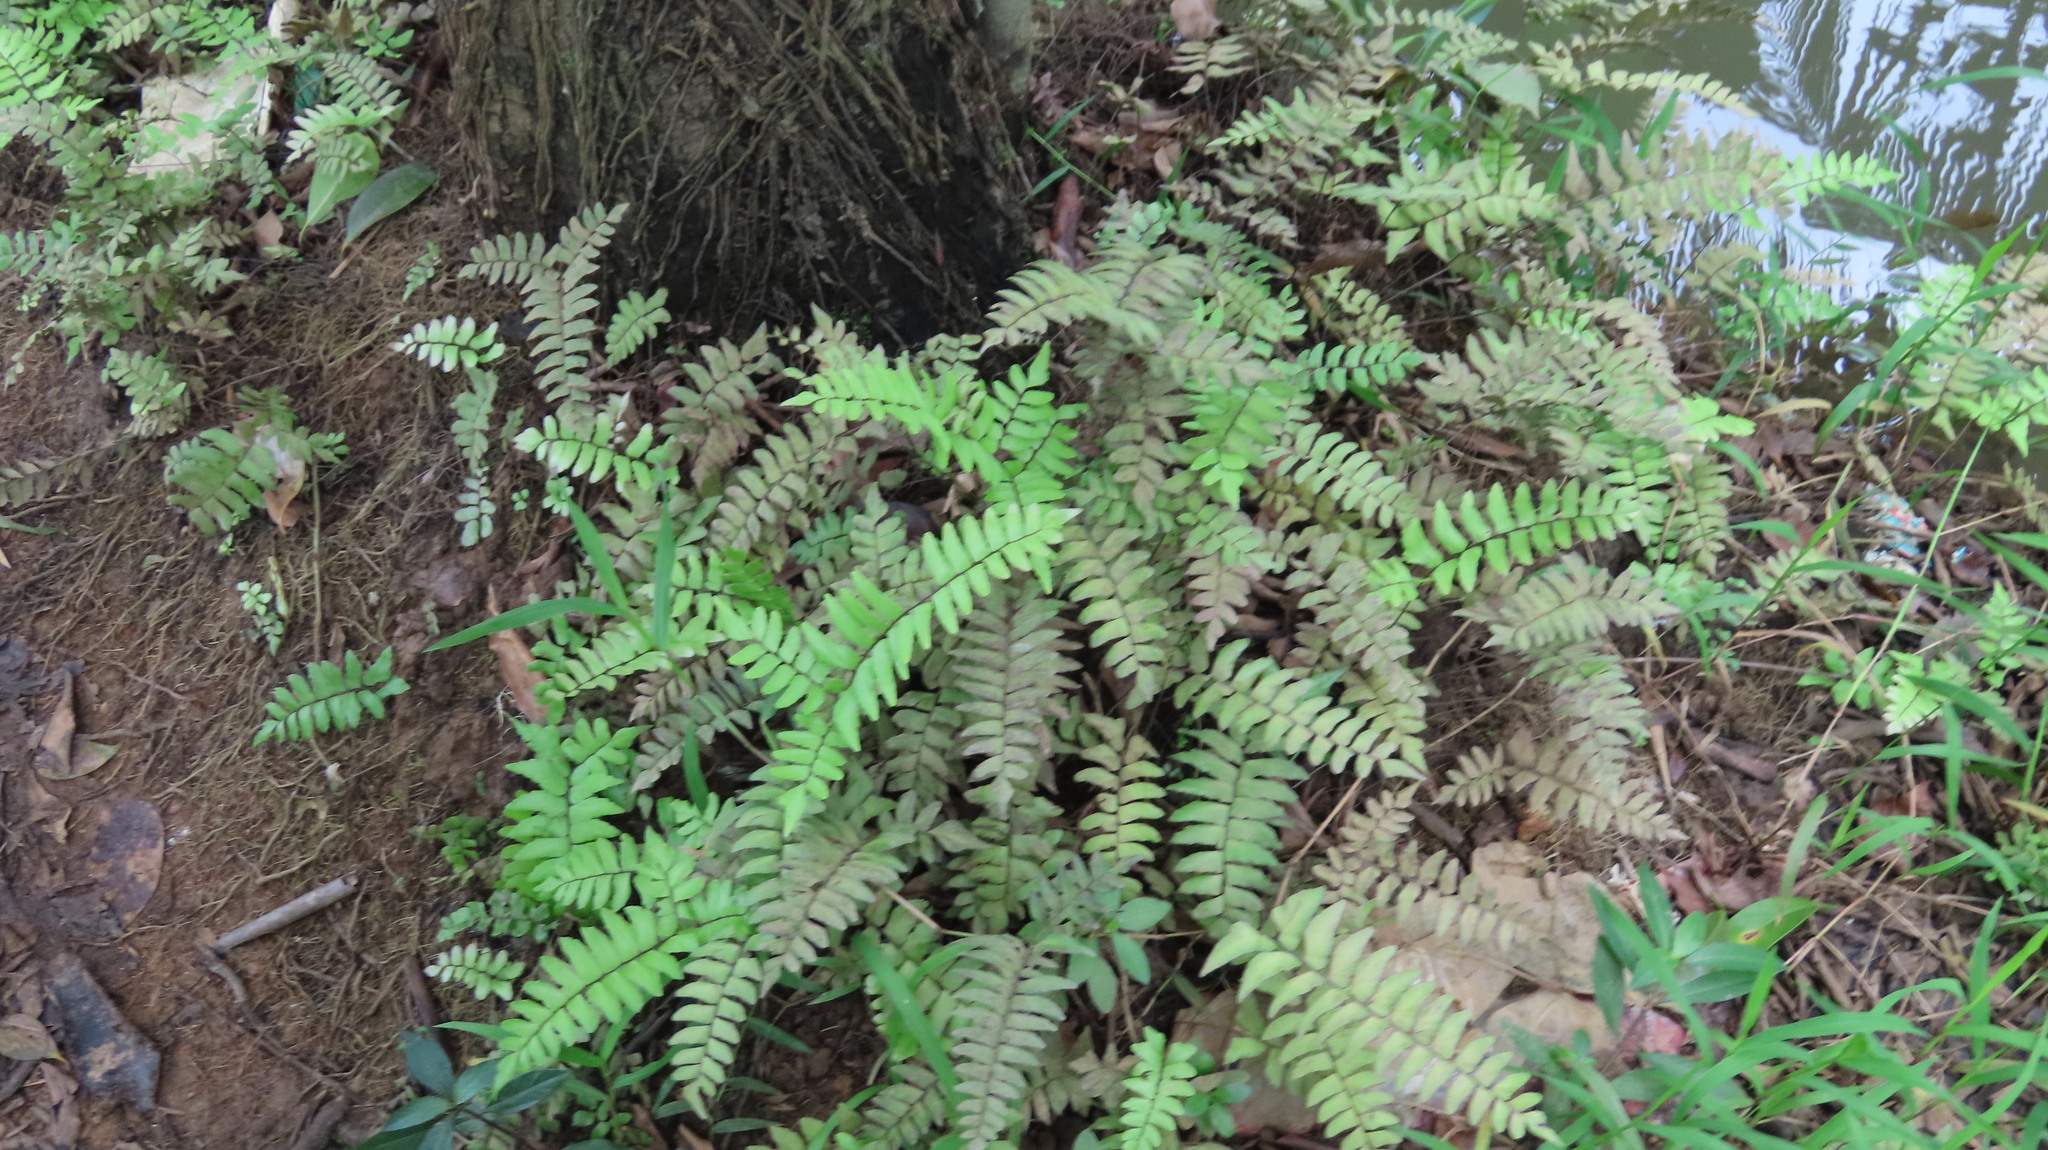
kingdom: Plantae
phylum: Tracheophyta
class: Polypodiopsida
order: Polypodiales
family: Pteridaceae
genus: Adiantum
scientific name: Adiantum latifolium
